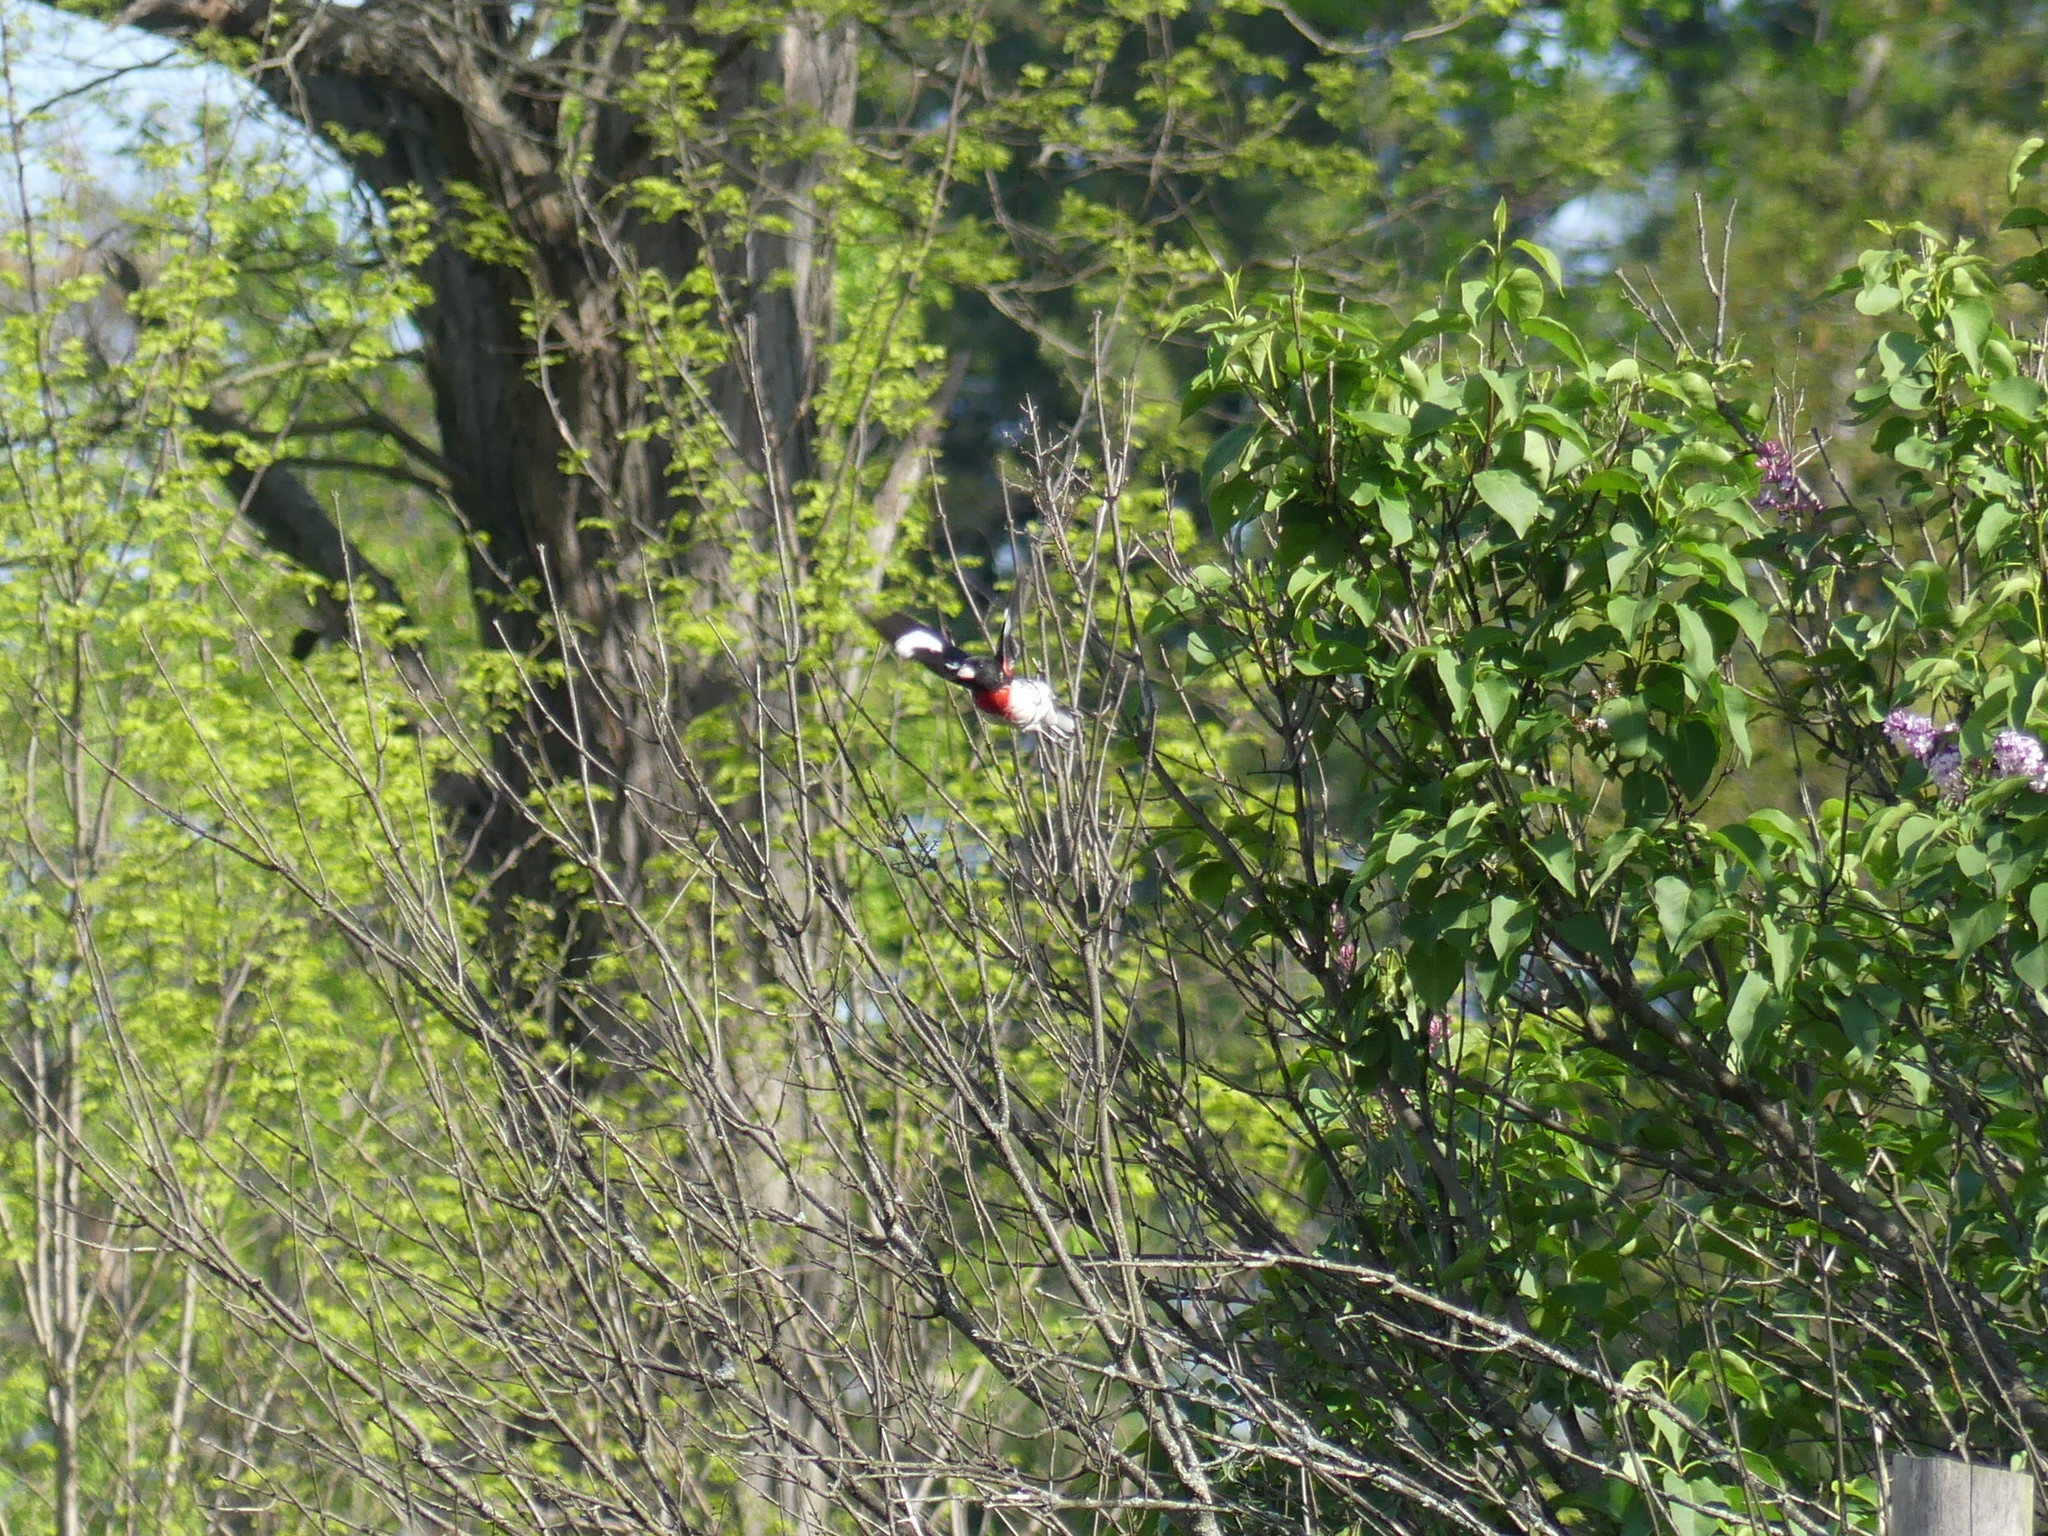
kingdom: Animalia
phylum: Chordata
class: Aves
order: Passeriformes
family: Cardinalidae
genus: Pheucticus
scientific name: Pheucticus ludovicianus
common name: Rose-breasted grosbeak
